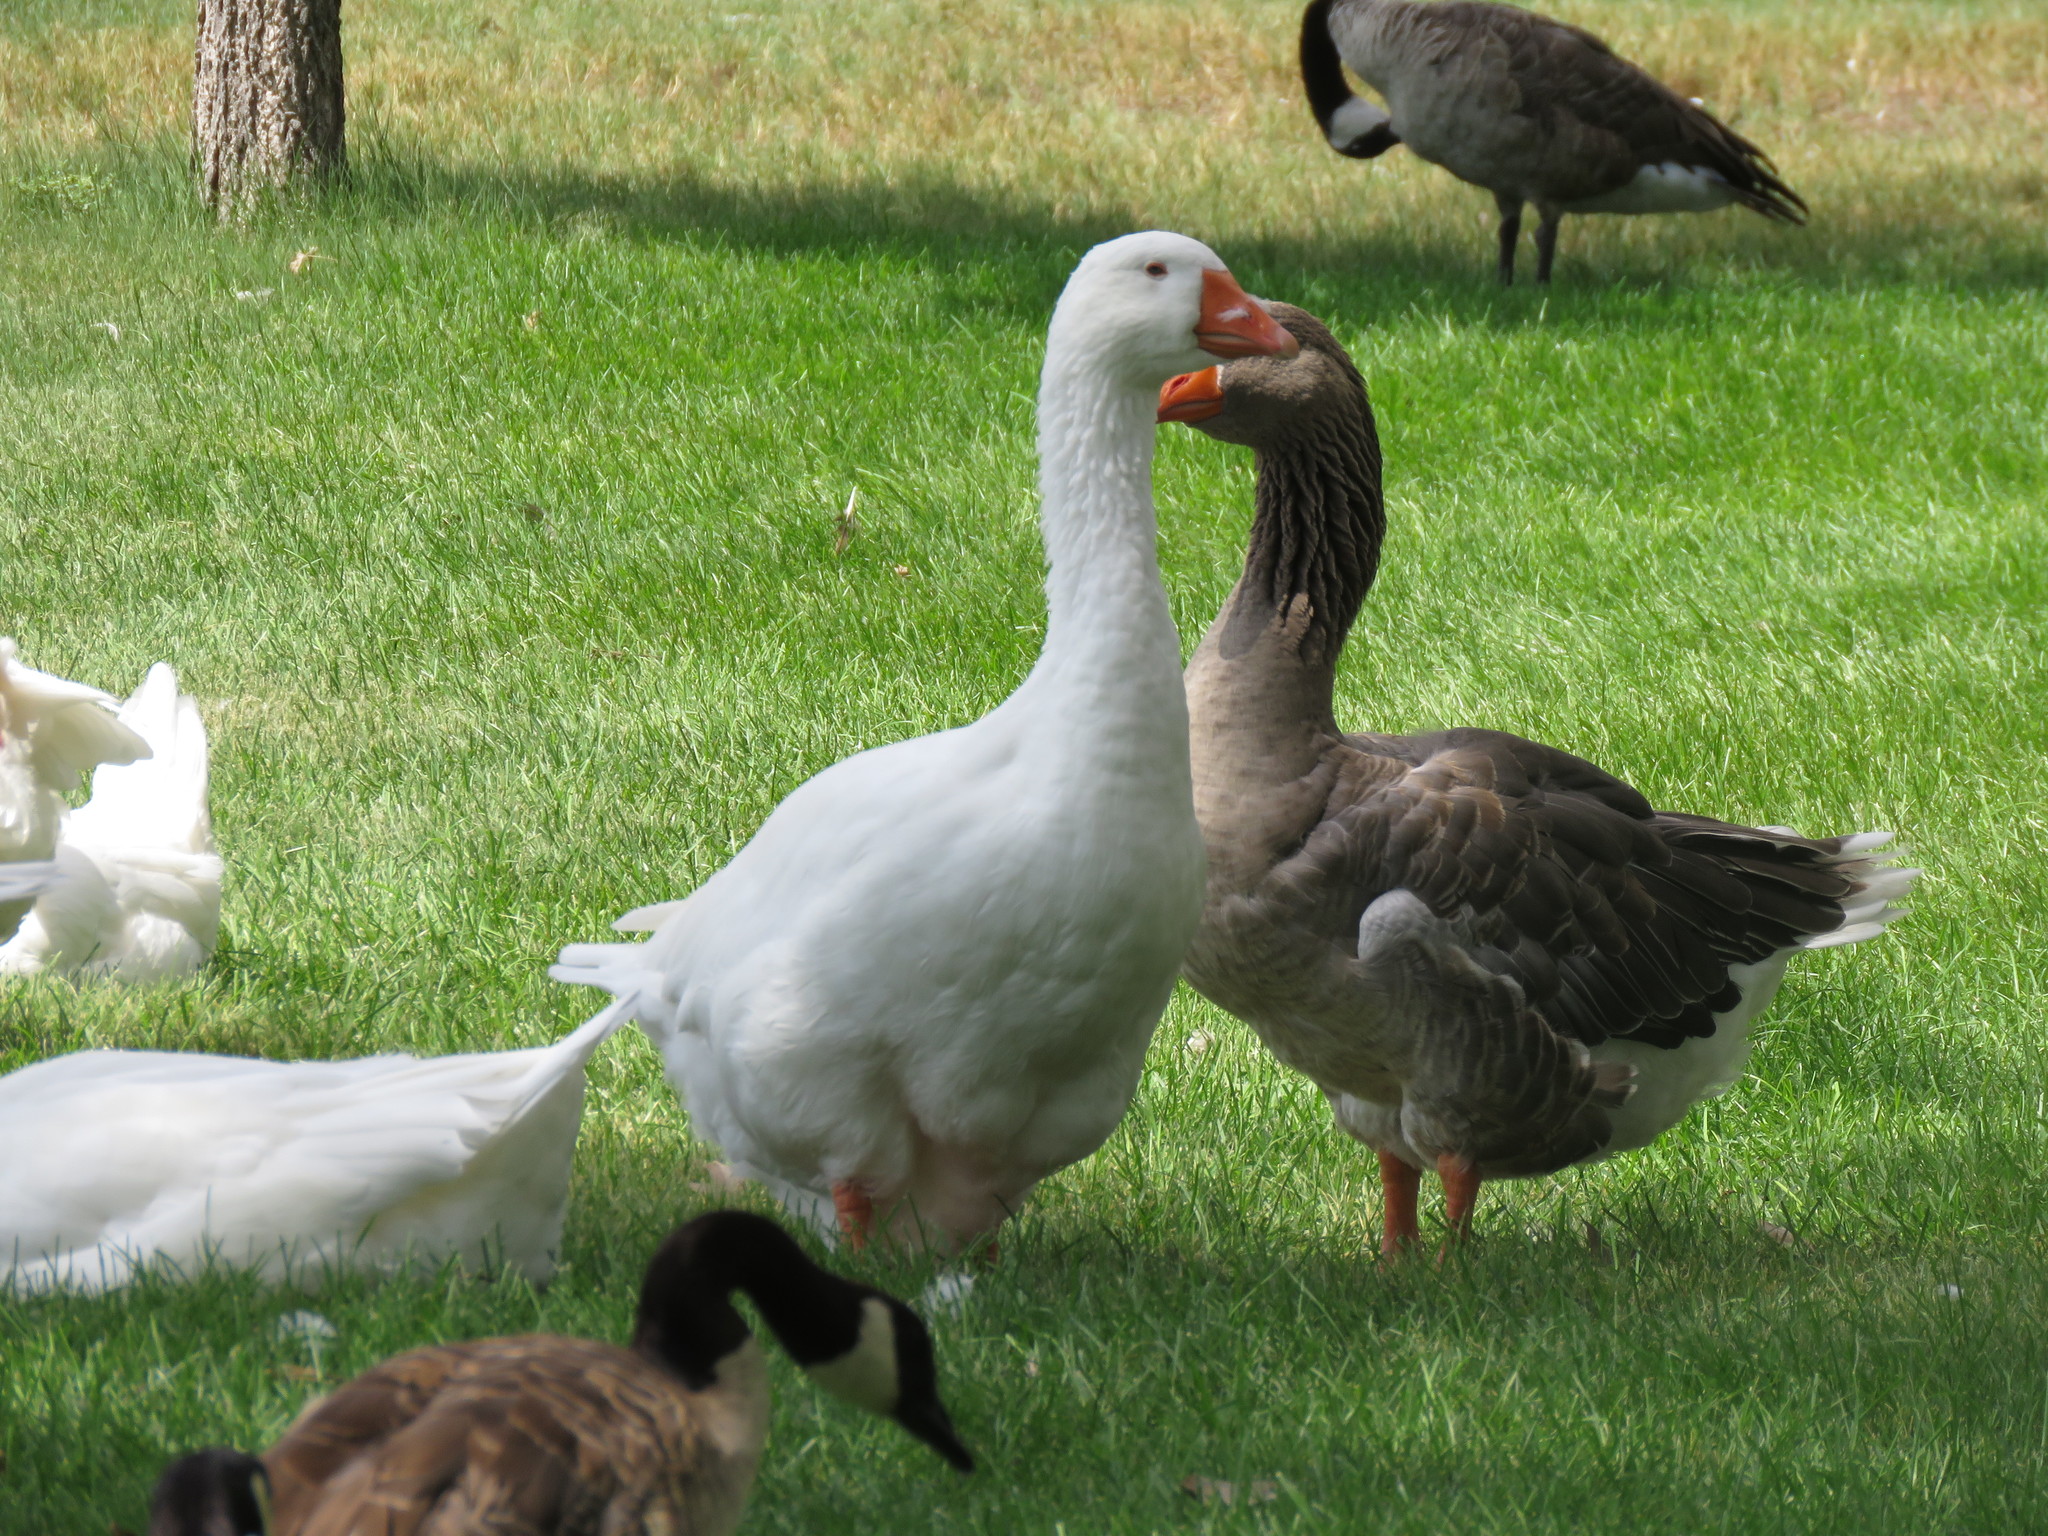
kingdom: Animalia
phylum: Chordata
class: Aves
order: Anseriformes
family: Anatidae
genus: Anser
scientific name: Anser anser
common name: Greylag goose
